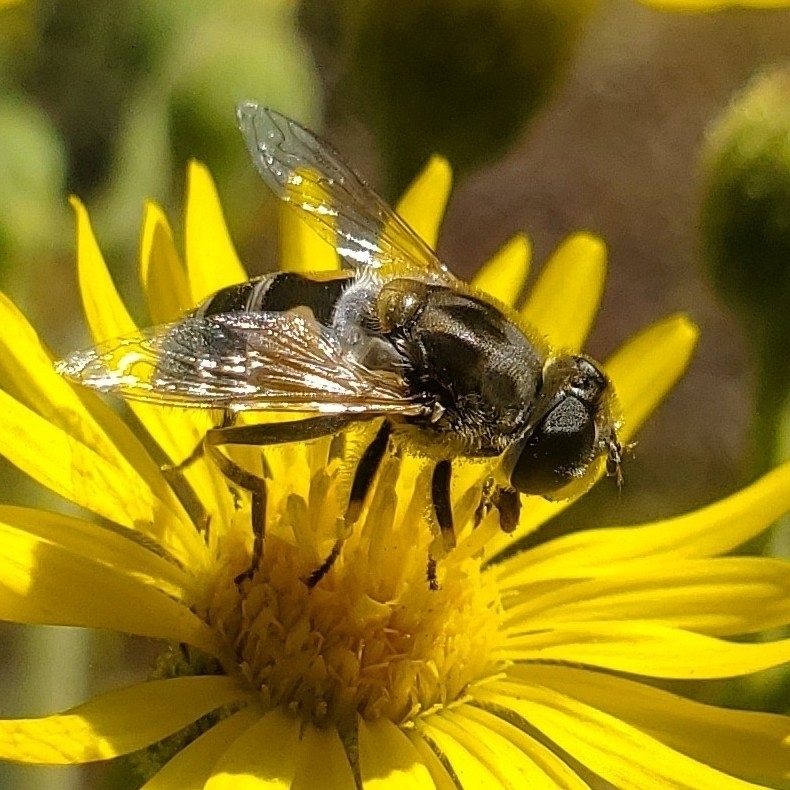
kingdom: Animalia
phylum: Arthropoda
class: Insecta
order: Diptera
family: Syrphidae
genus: Eristalis
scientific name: Eristalis arbustorum
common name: Hover fly
